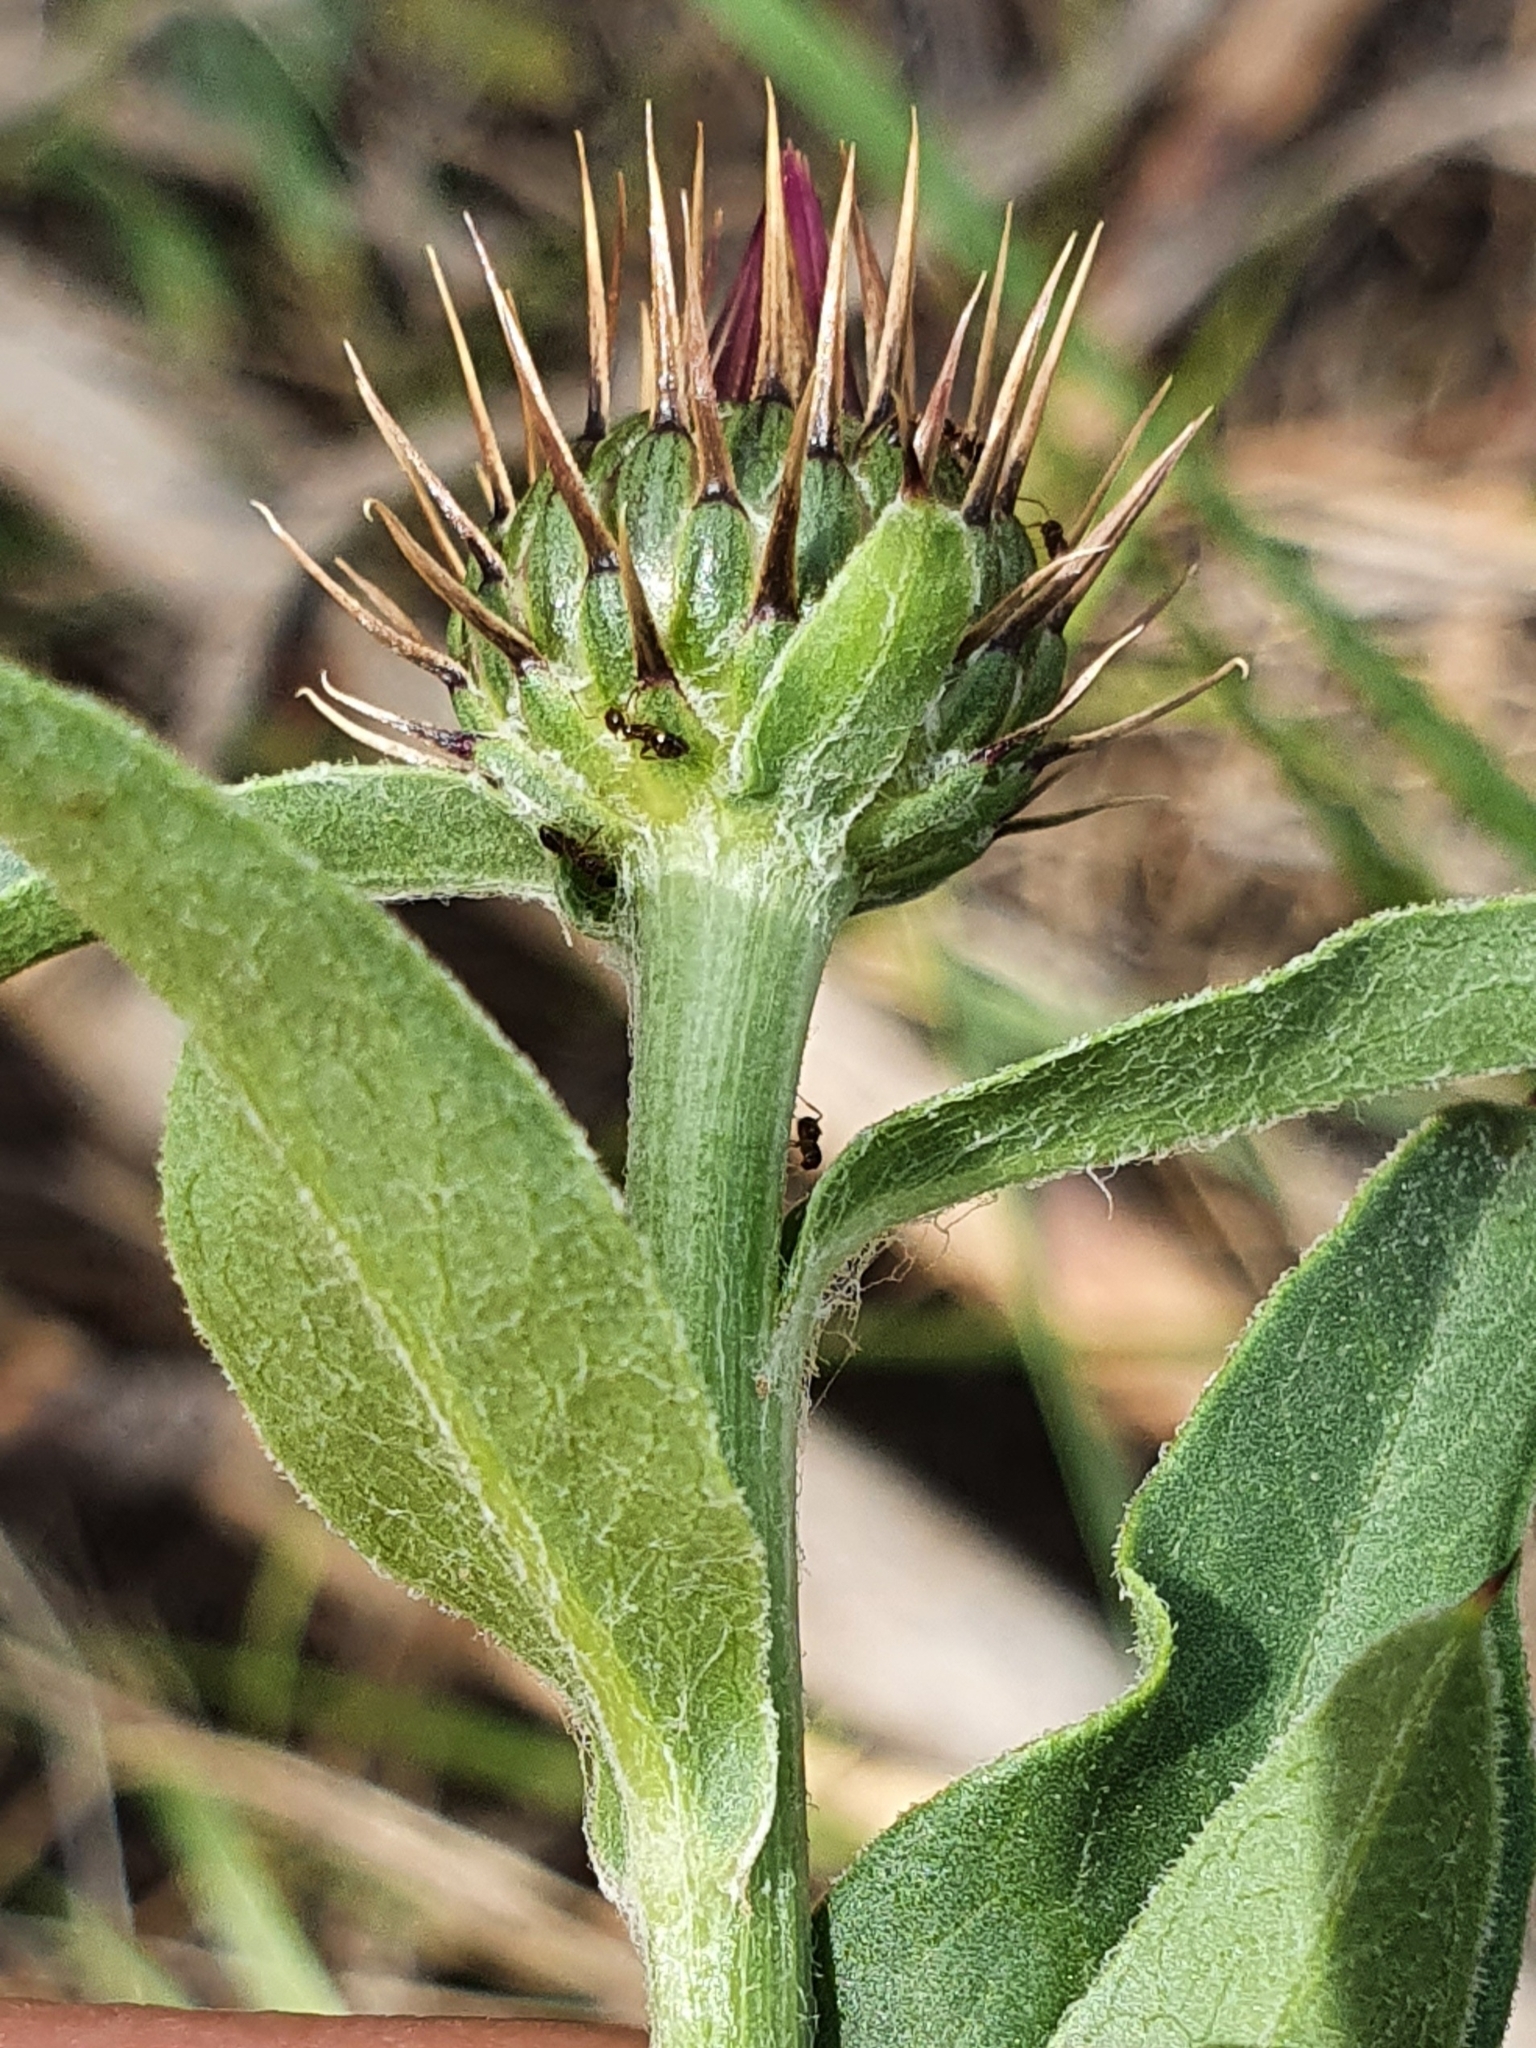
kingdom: Plantae
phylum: Tracheophyta
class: Magnoliopsida
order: Asterales
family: Asteraceae
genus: Klasea
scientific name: Klasea flavescens
